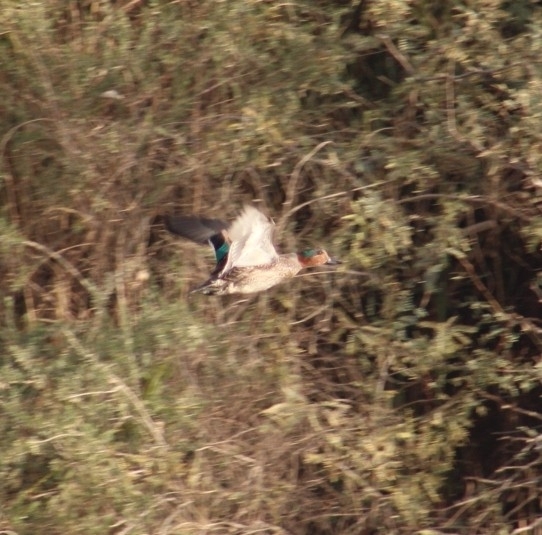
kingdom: Animalia
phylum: Chordata
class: Aves
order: Anseriformes
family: Anatidae
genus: Anas
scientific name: Anas crecca
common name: Eurasian teal
